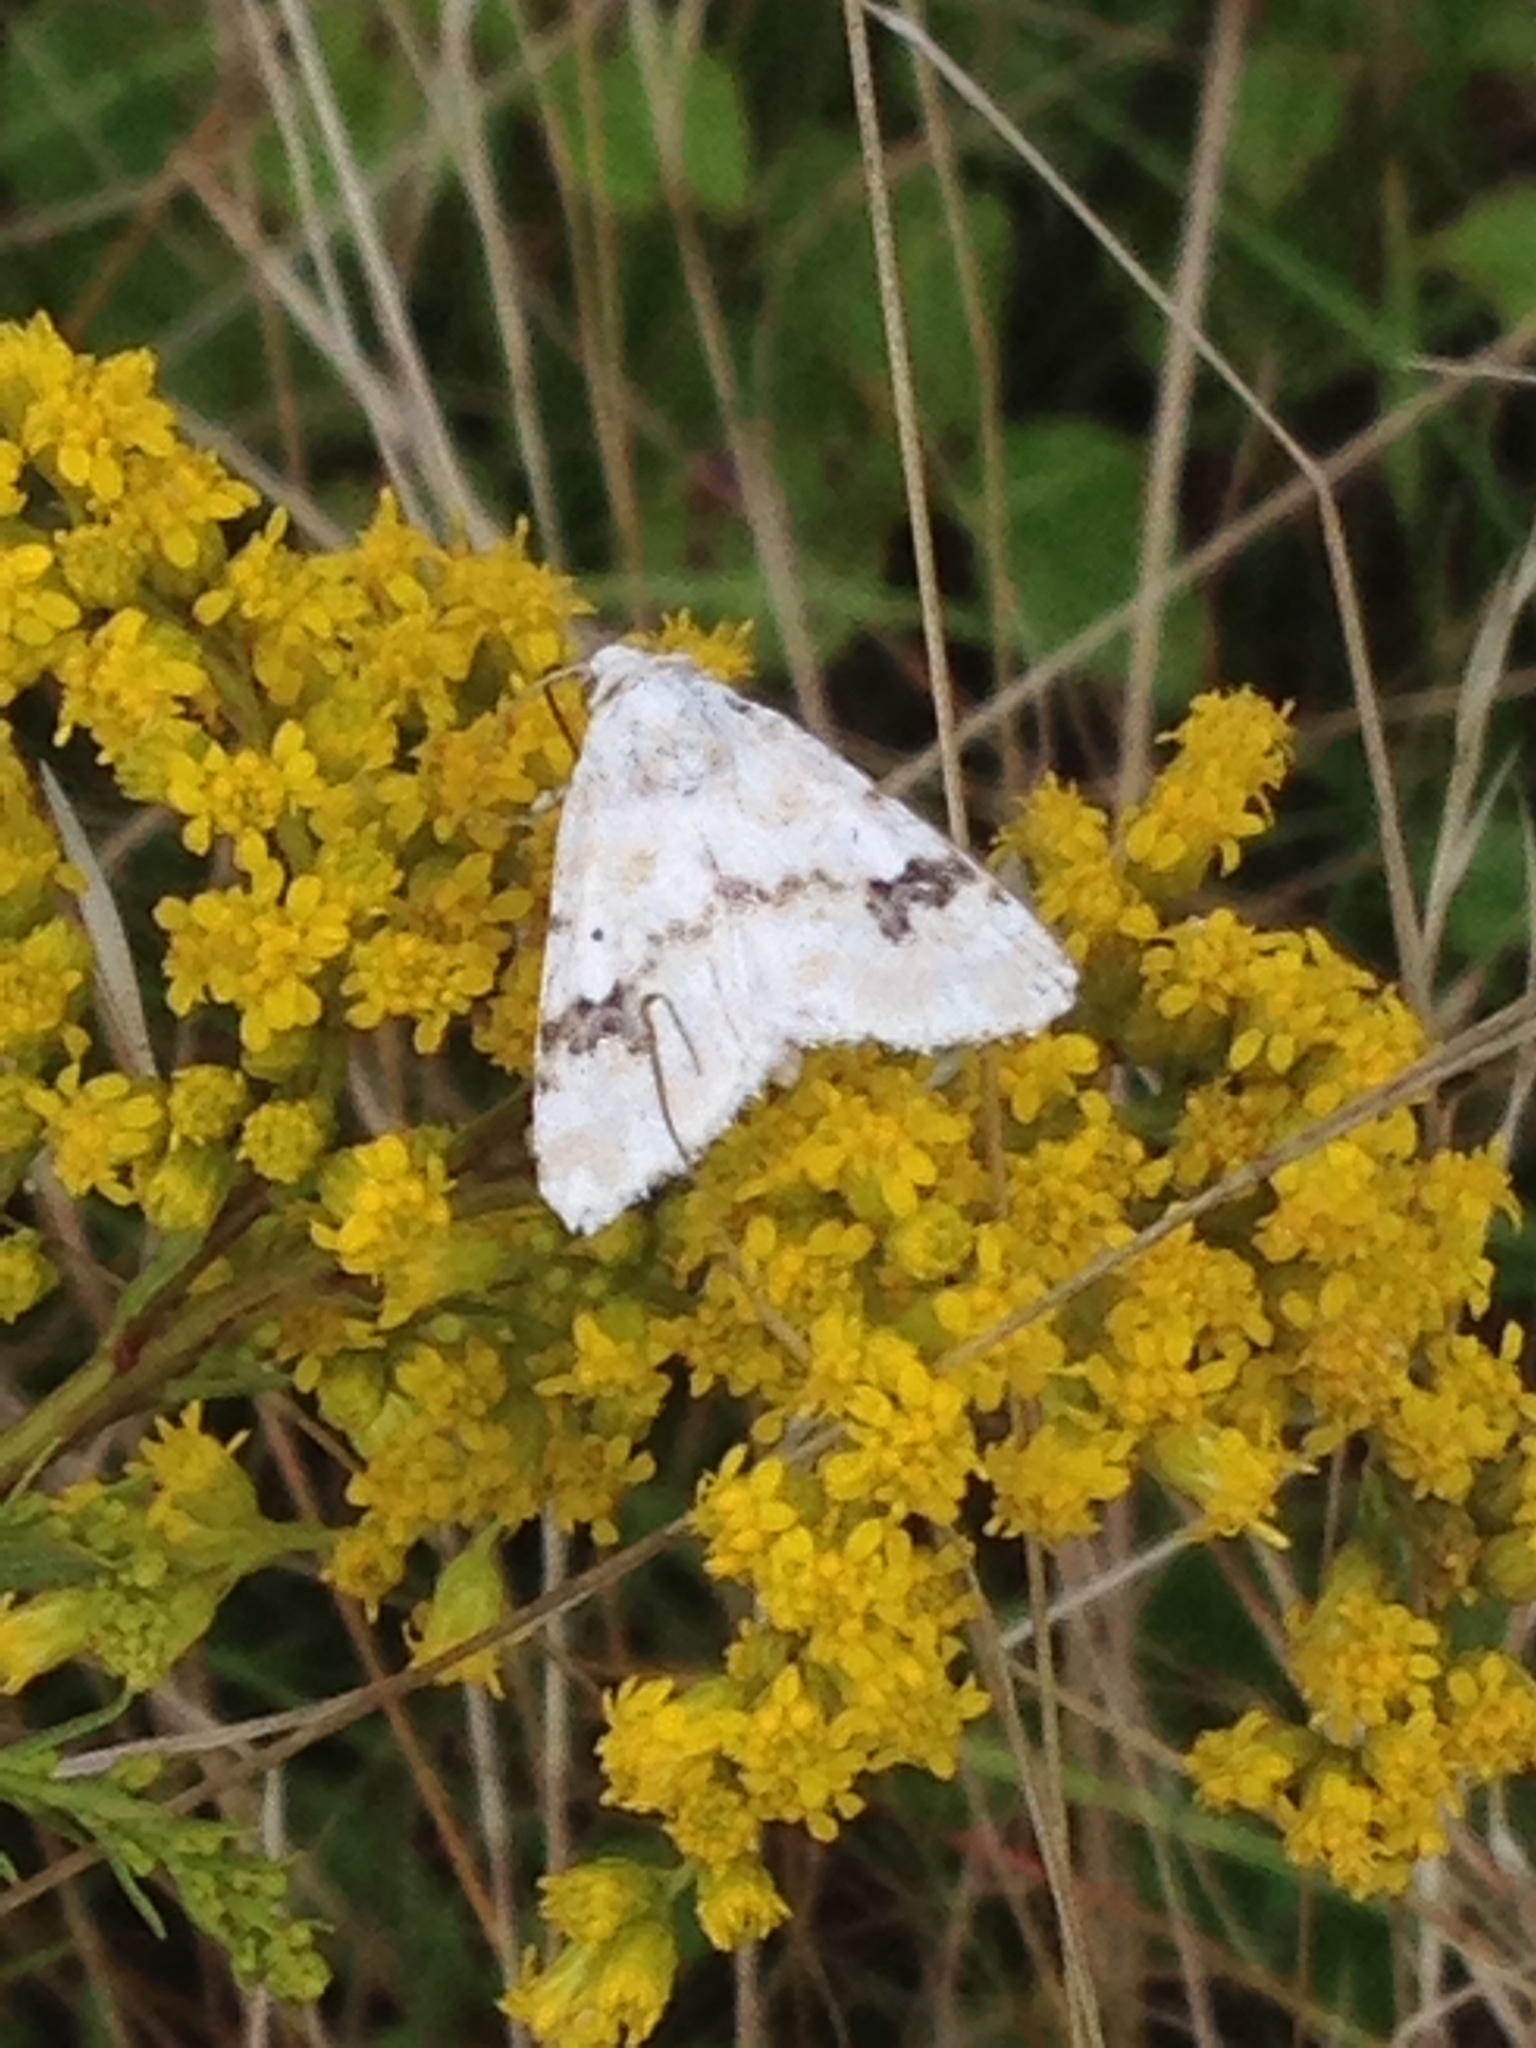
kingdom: Animalia
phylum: Arthropoda
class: Insecta
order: Lepidoptera
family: Noctuidae
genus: Schinia
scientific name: Schinia nundina
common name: Goldenrod flower moth
